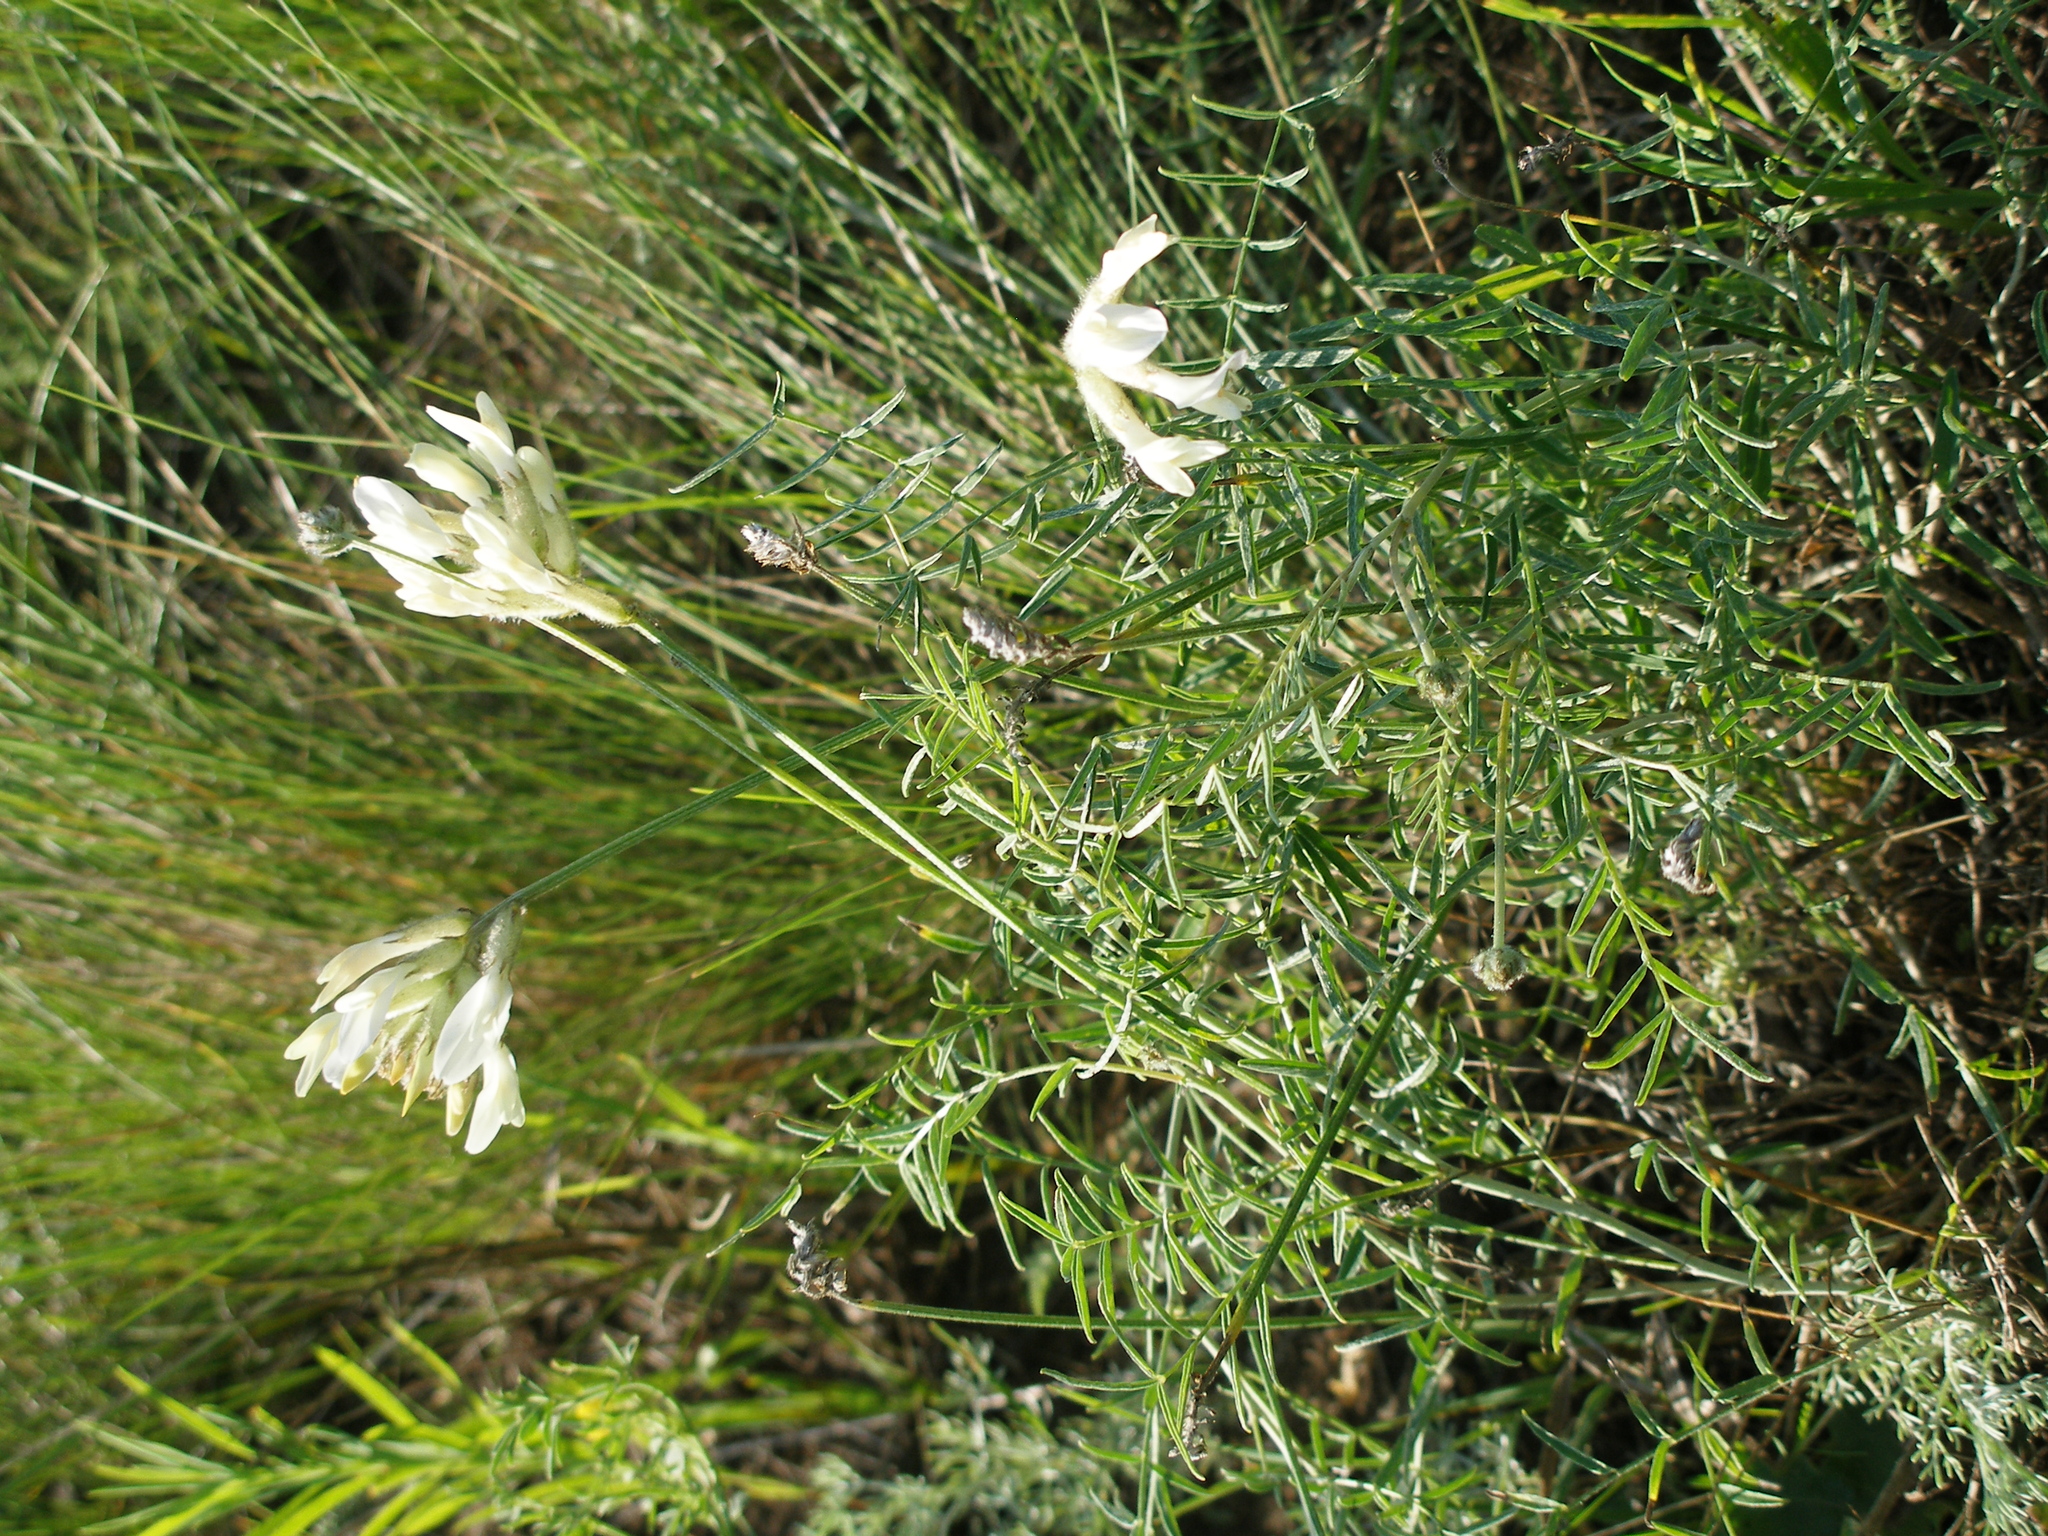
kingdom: Plantae
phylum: Tracheophyta
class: Magnoliopsida
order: Fabales
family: Fabaceae
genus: Astragalus
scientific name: Astragalus zingeri
